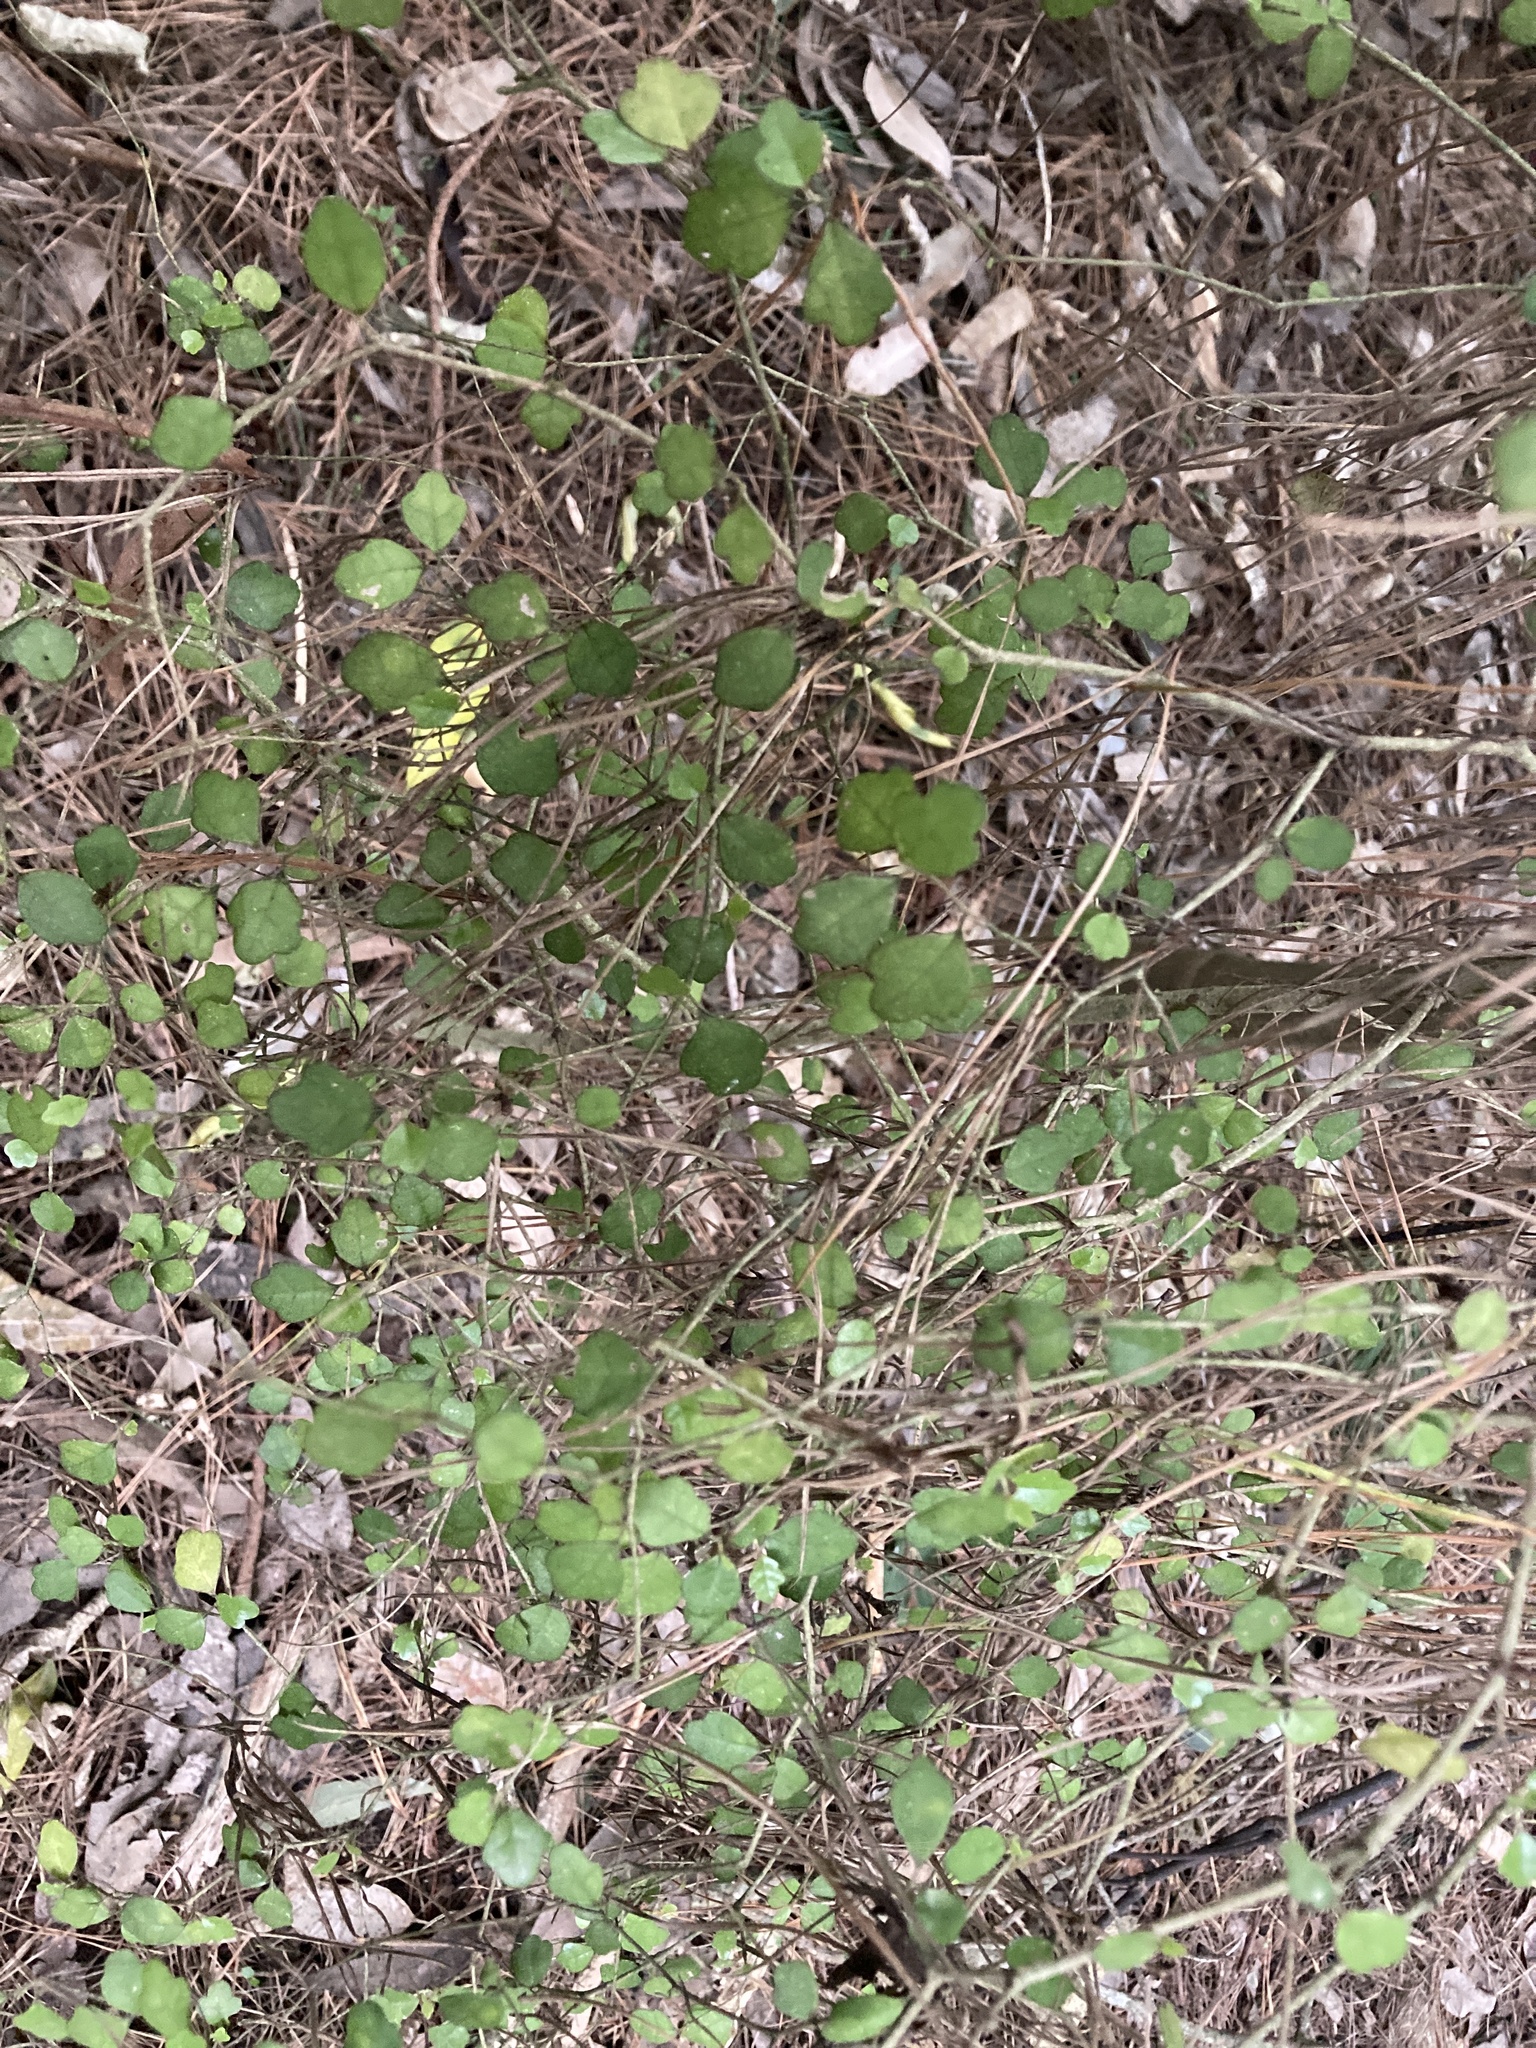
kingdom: Plantae
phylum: Tracheophyta
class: Magnoliopsida
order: Apiales
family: Pennantiaceae
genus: Pennantia
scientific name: Pennantia corymbosa
